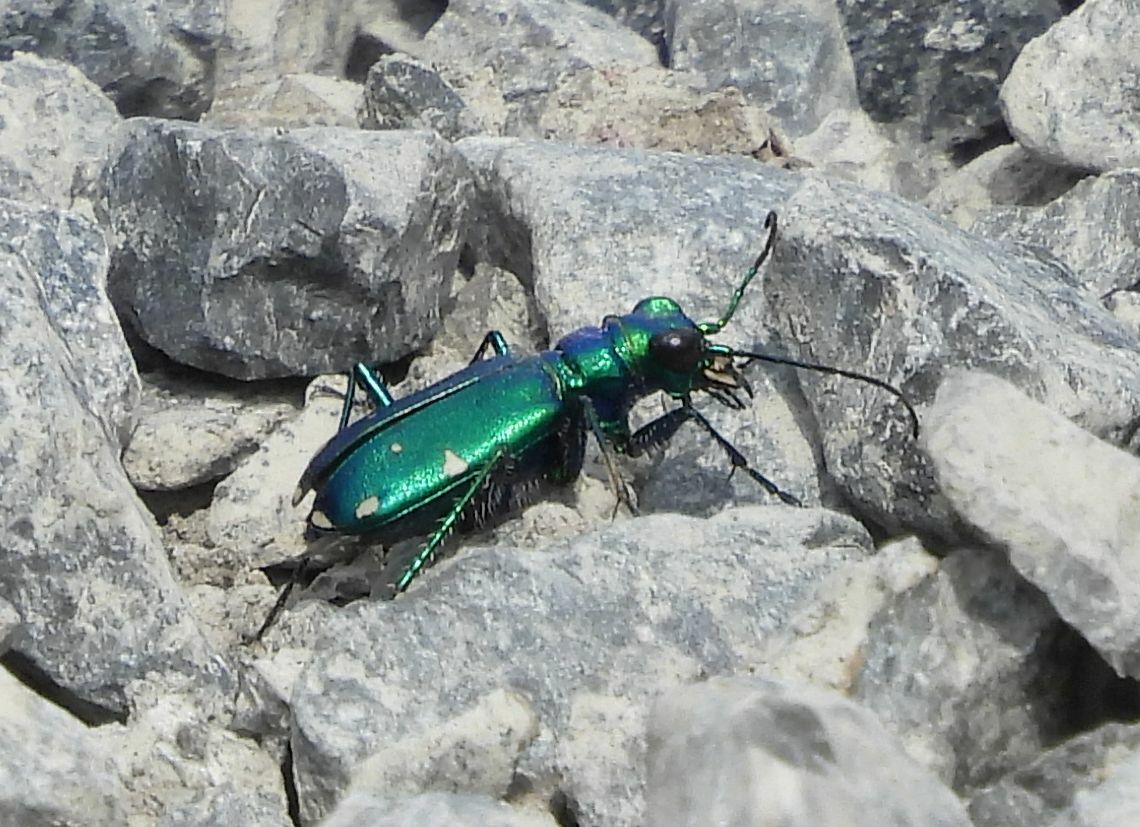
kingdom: Animalia
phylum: Arthropoda
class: Insecta
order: Coleoptera
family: Carabidae
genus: Cicindela
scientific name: Cicindela sexguttata
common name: Six-spotted tiger beetle
